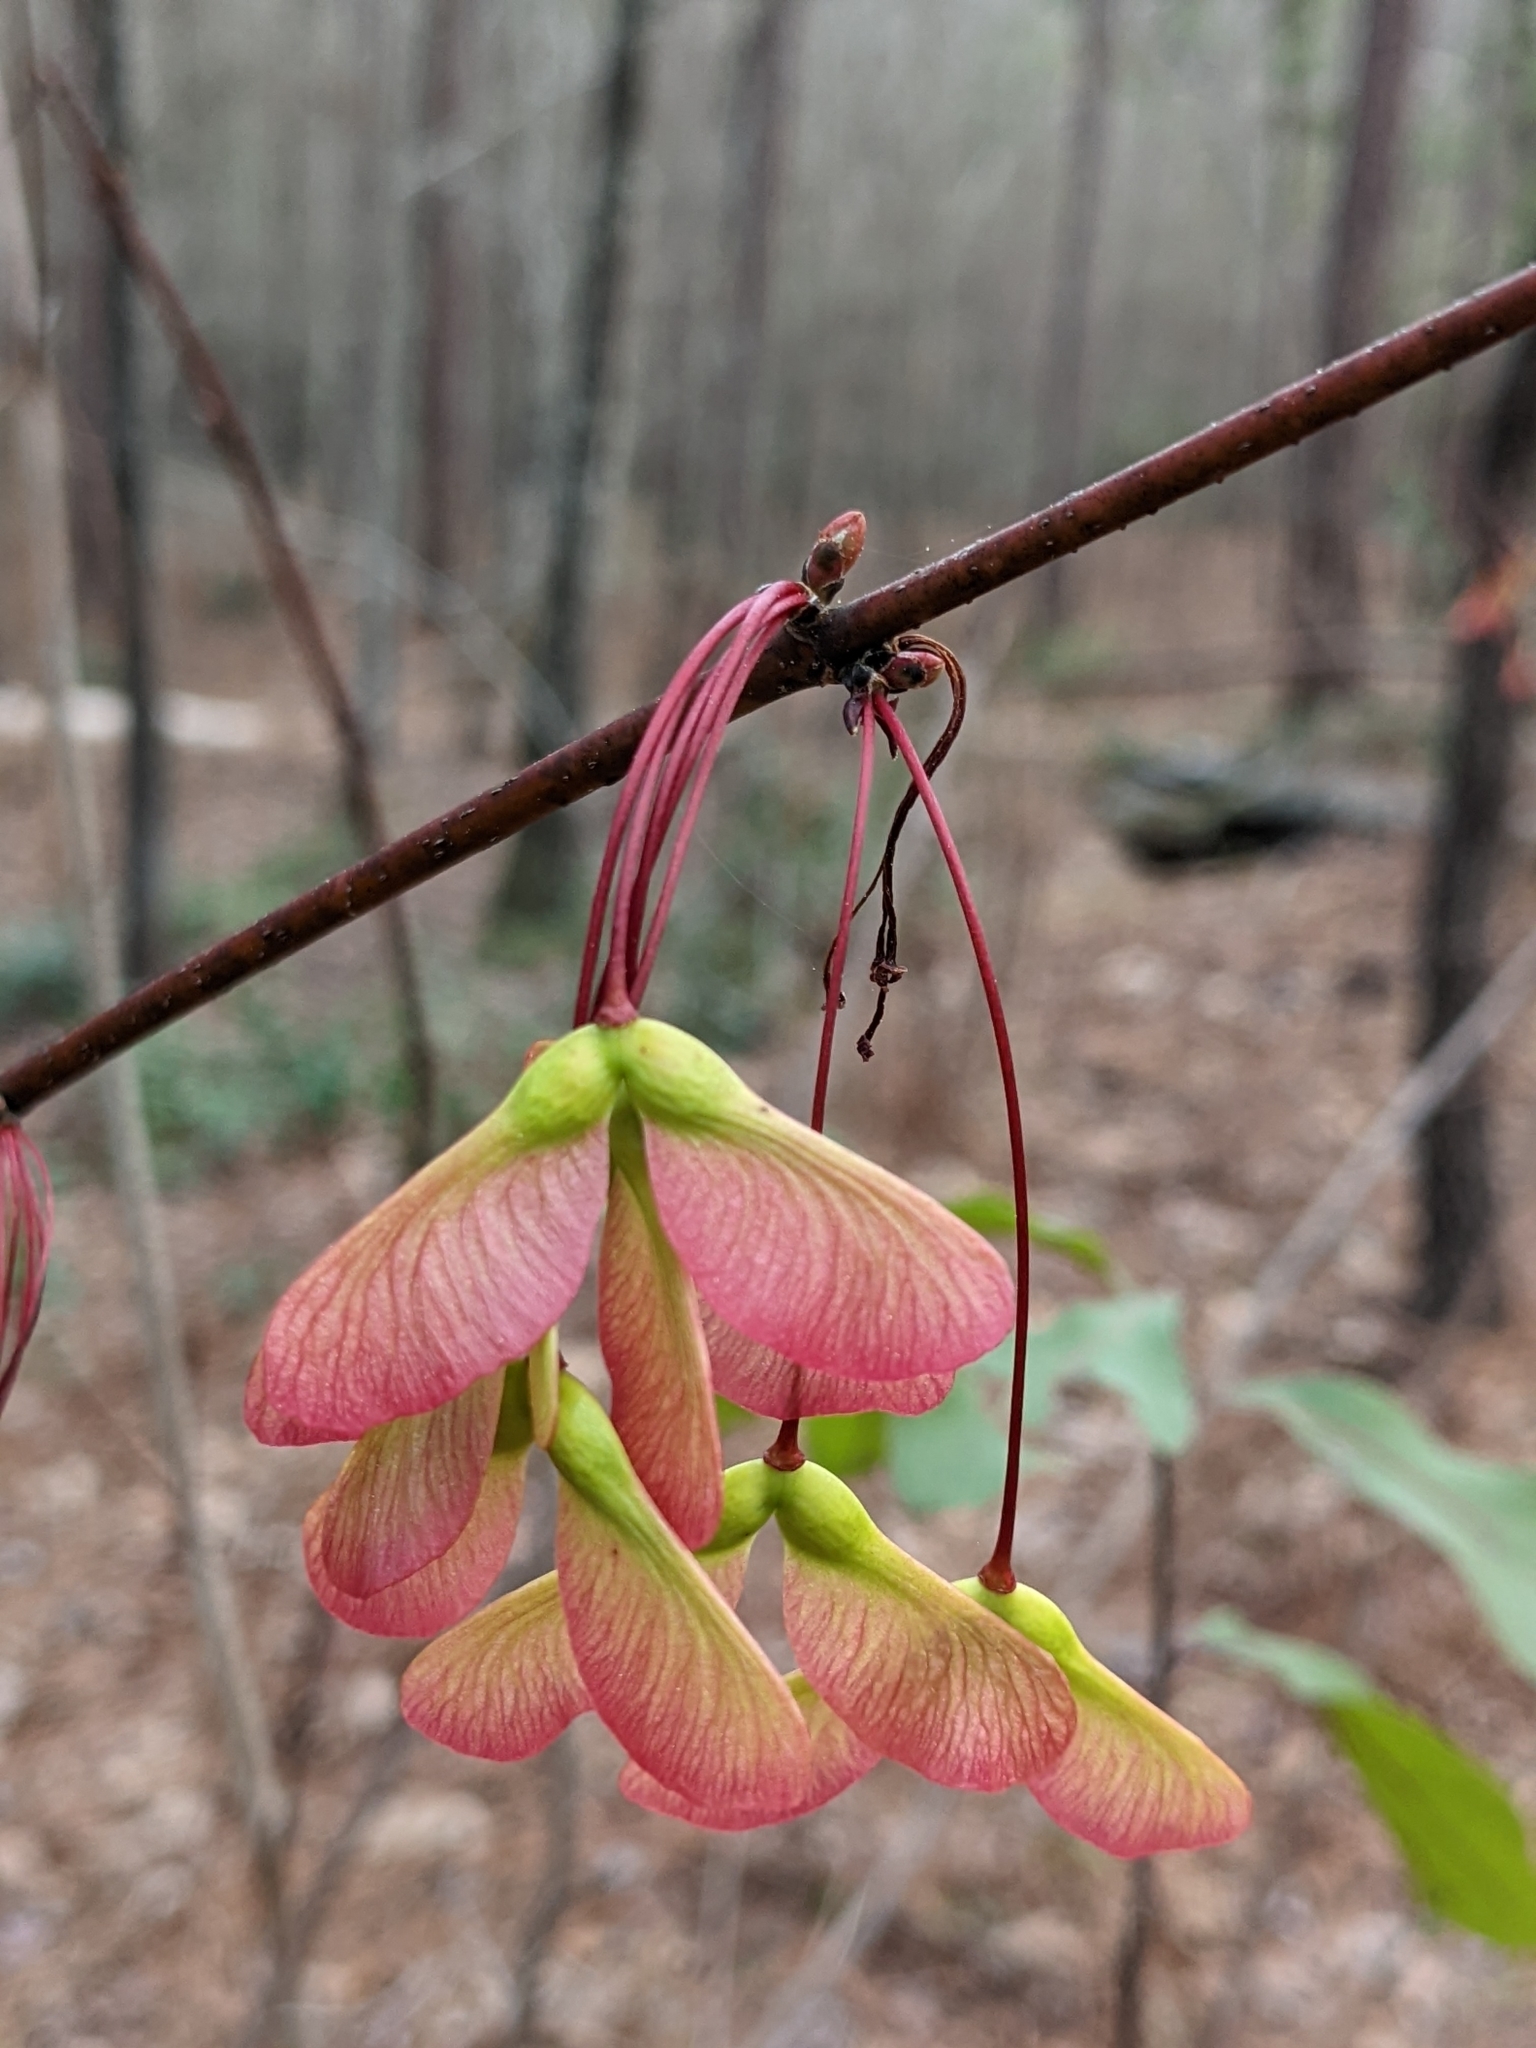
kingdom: Plantae
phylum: Tracheophyta
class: Magnoliopsida
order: Sapindales
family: Sapindaceae
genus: Acer
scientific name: Acer rubrum
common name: Red maple
